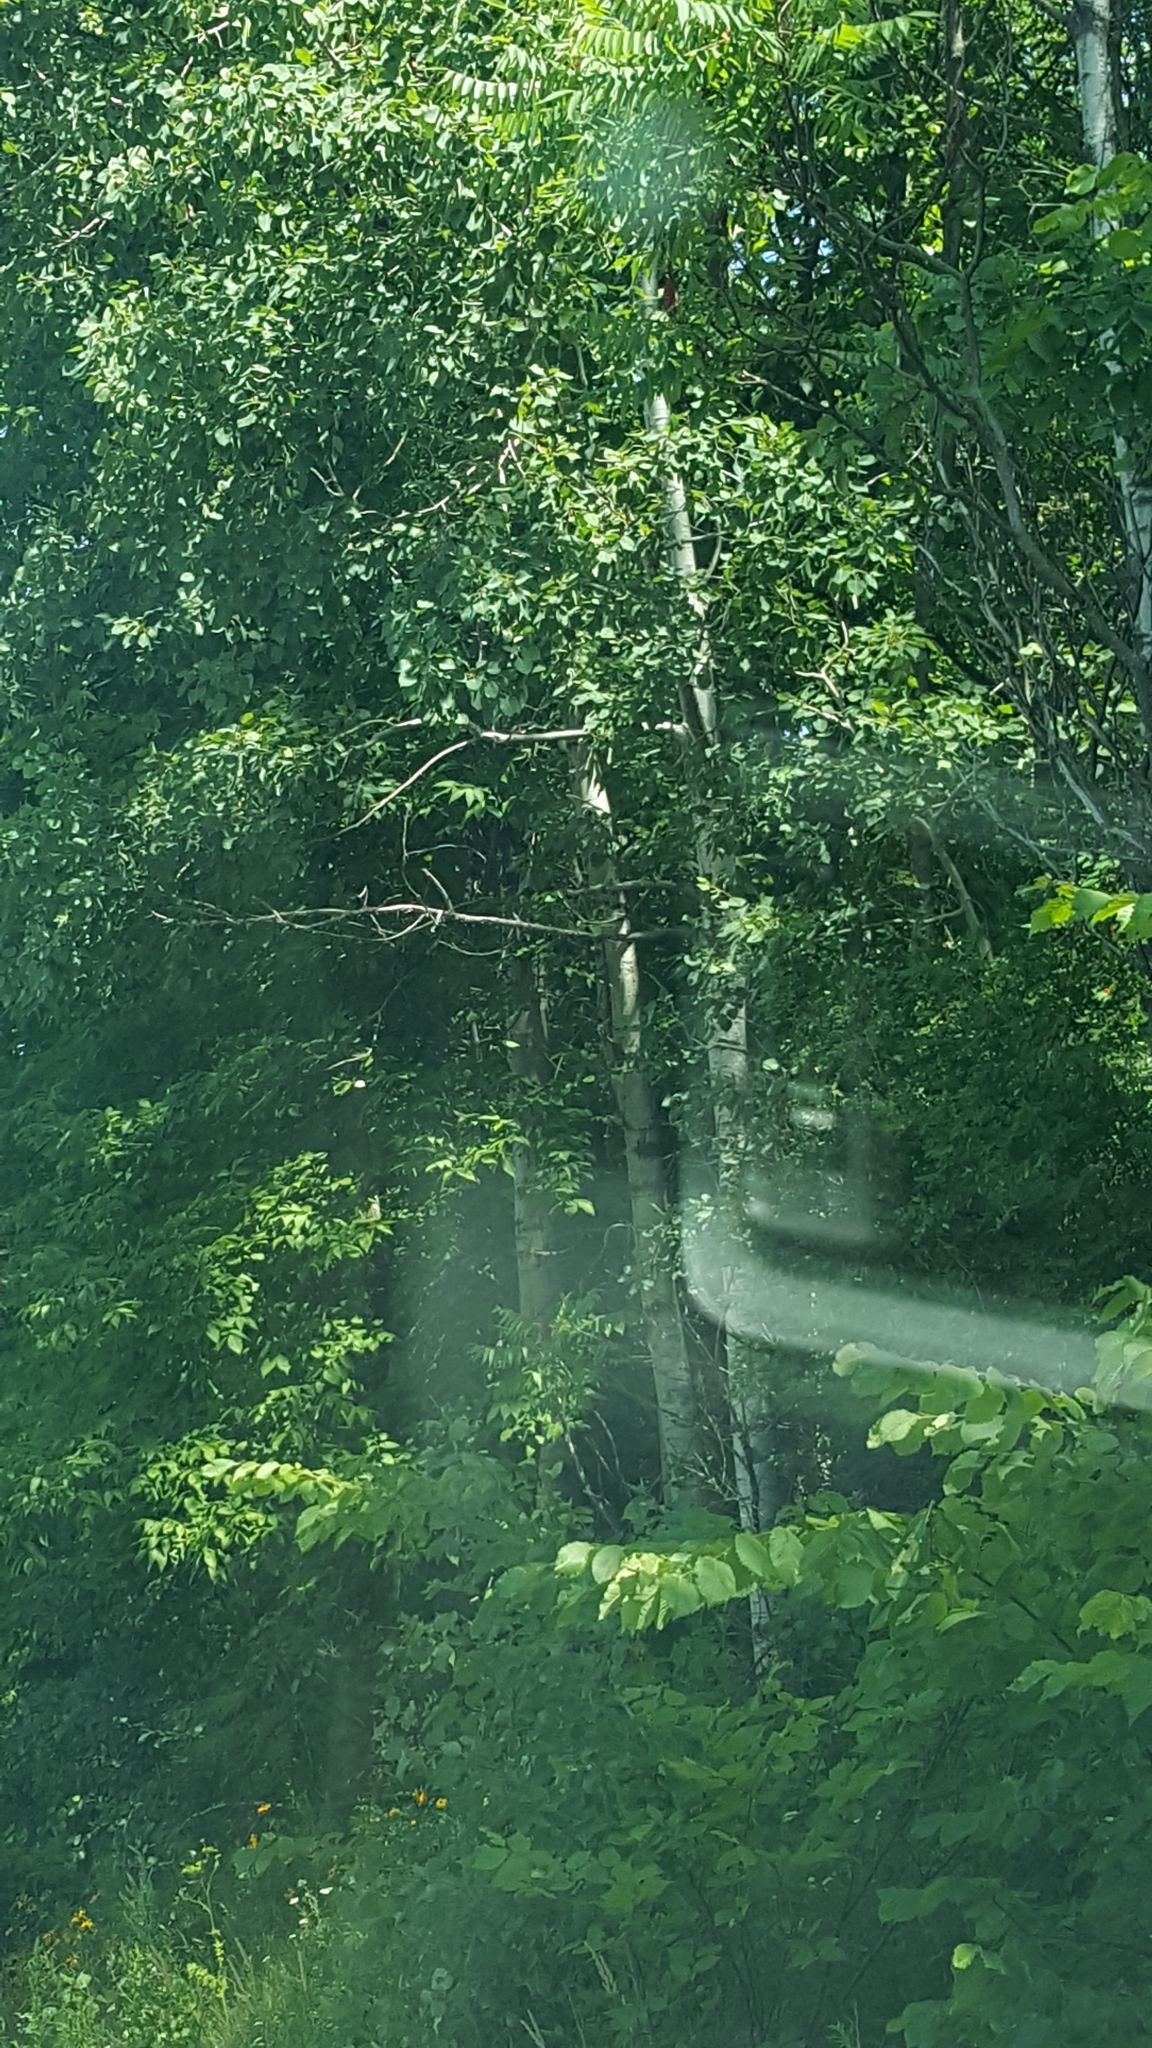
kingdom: Plantae
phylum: Tracheophyta
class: Magnoliopsida
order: Malpighiales
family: Salicaceae
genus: Populus
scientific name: Populus tremuloides
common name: Quaking aspen
